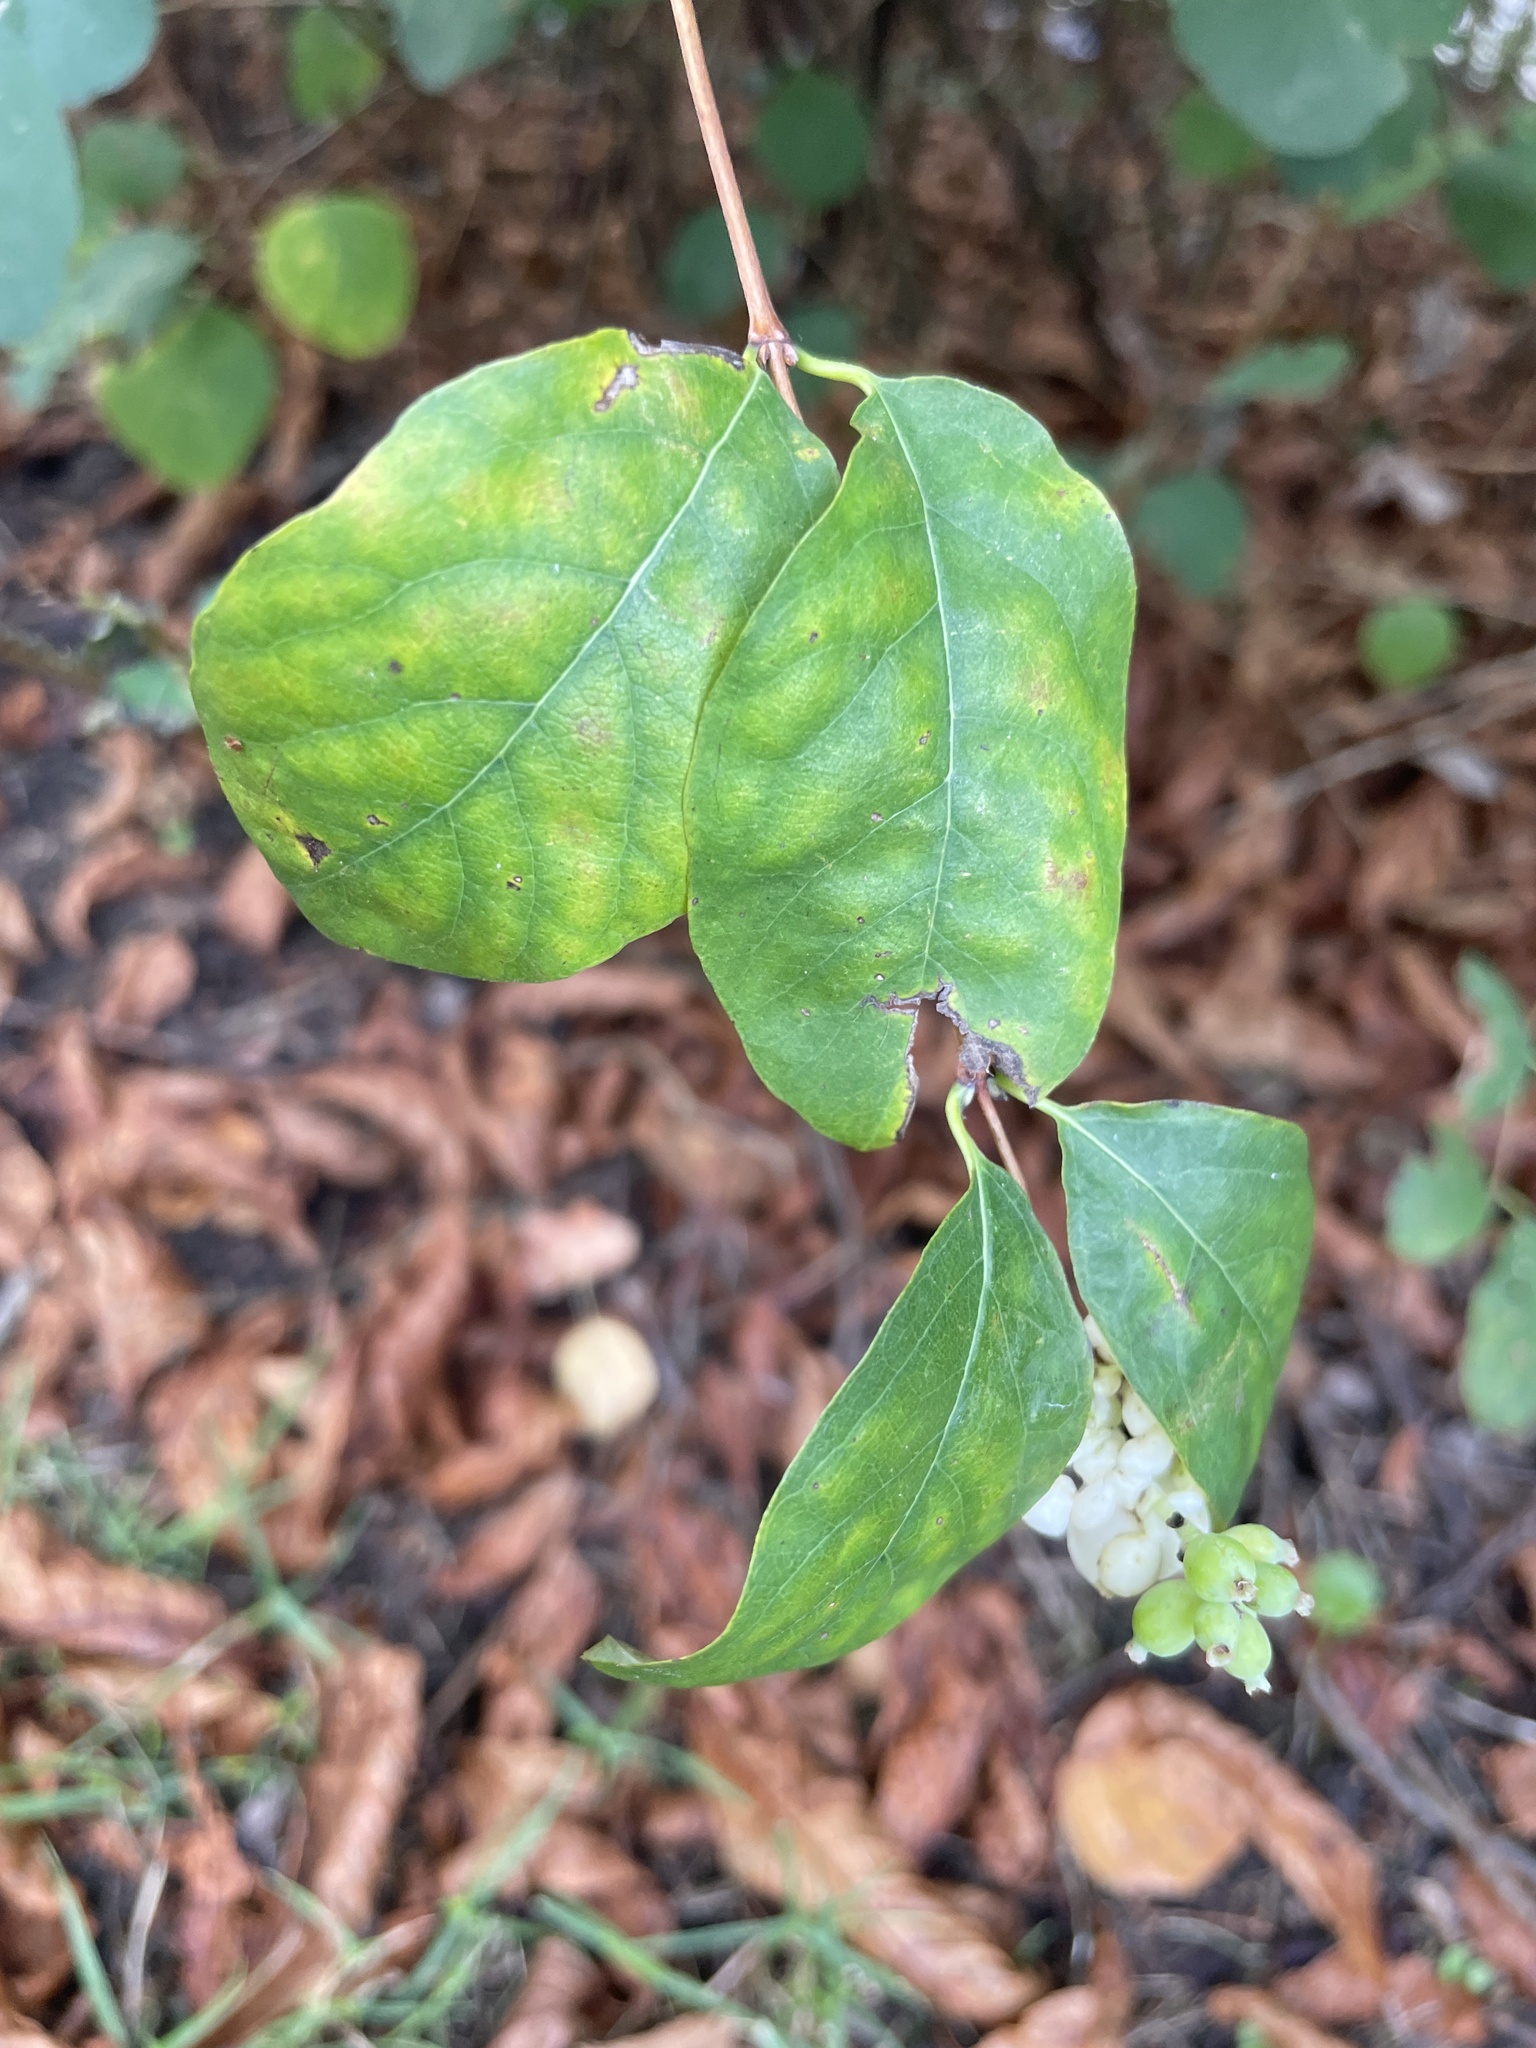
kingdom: Plantae
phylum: Tracheophyta
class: Magnoliopsida
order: Dipsacales
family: Caprifoliaceae
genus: Symphoricarpos
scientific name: Symphoricarpos albus
